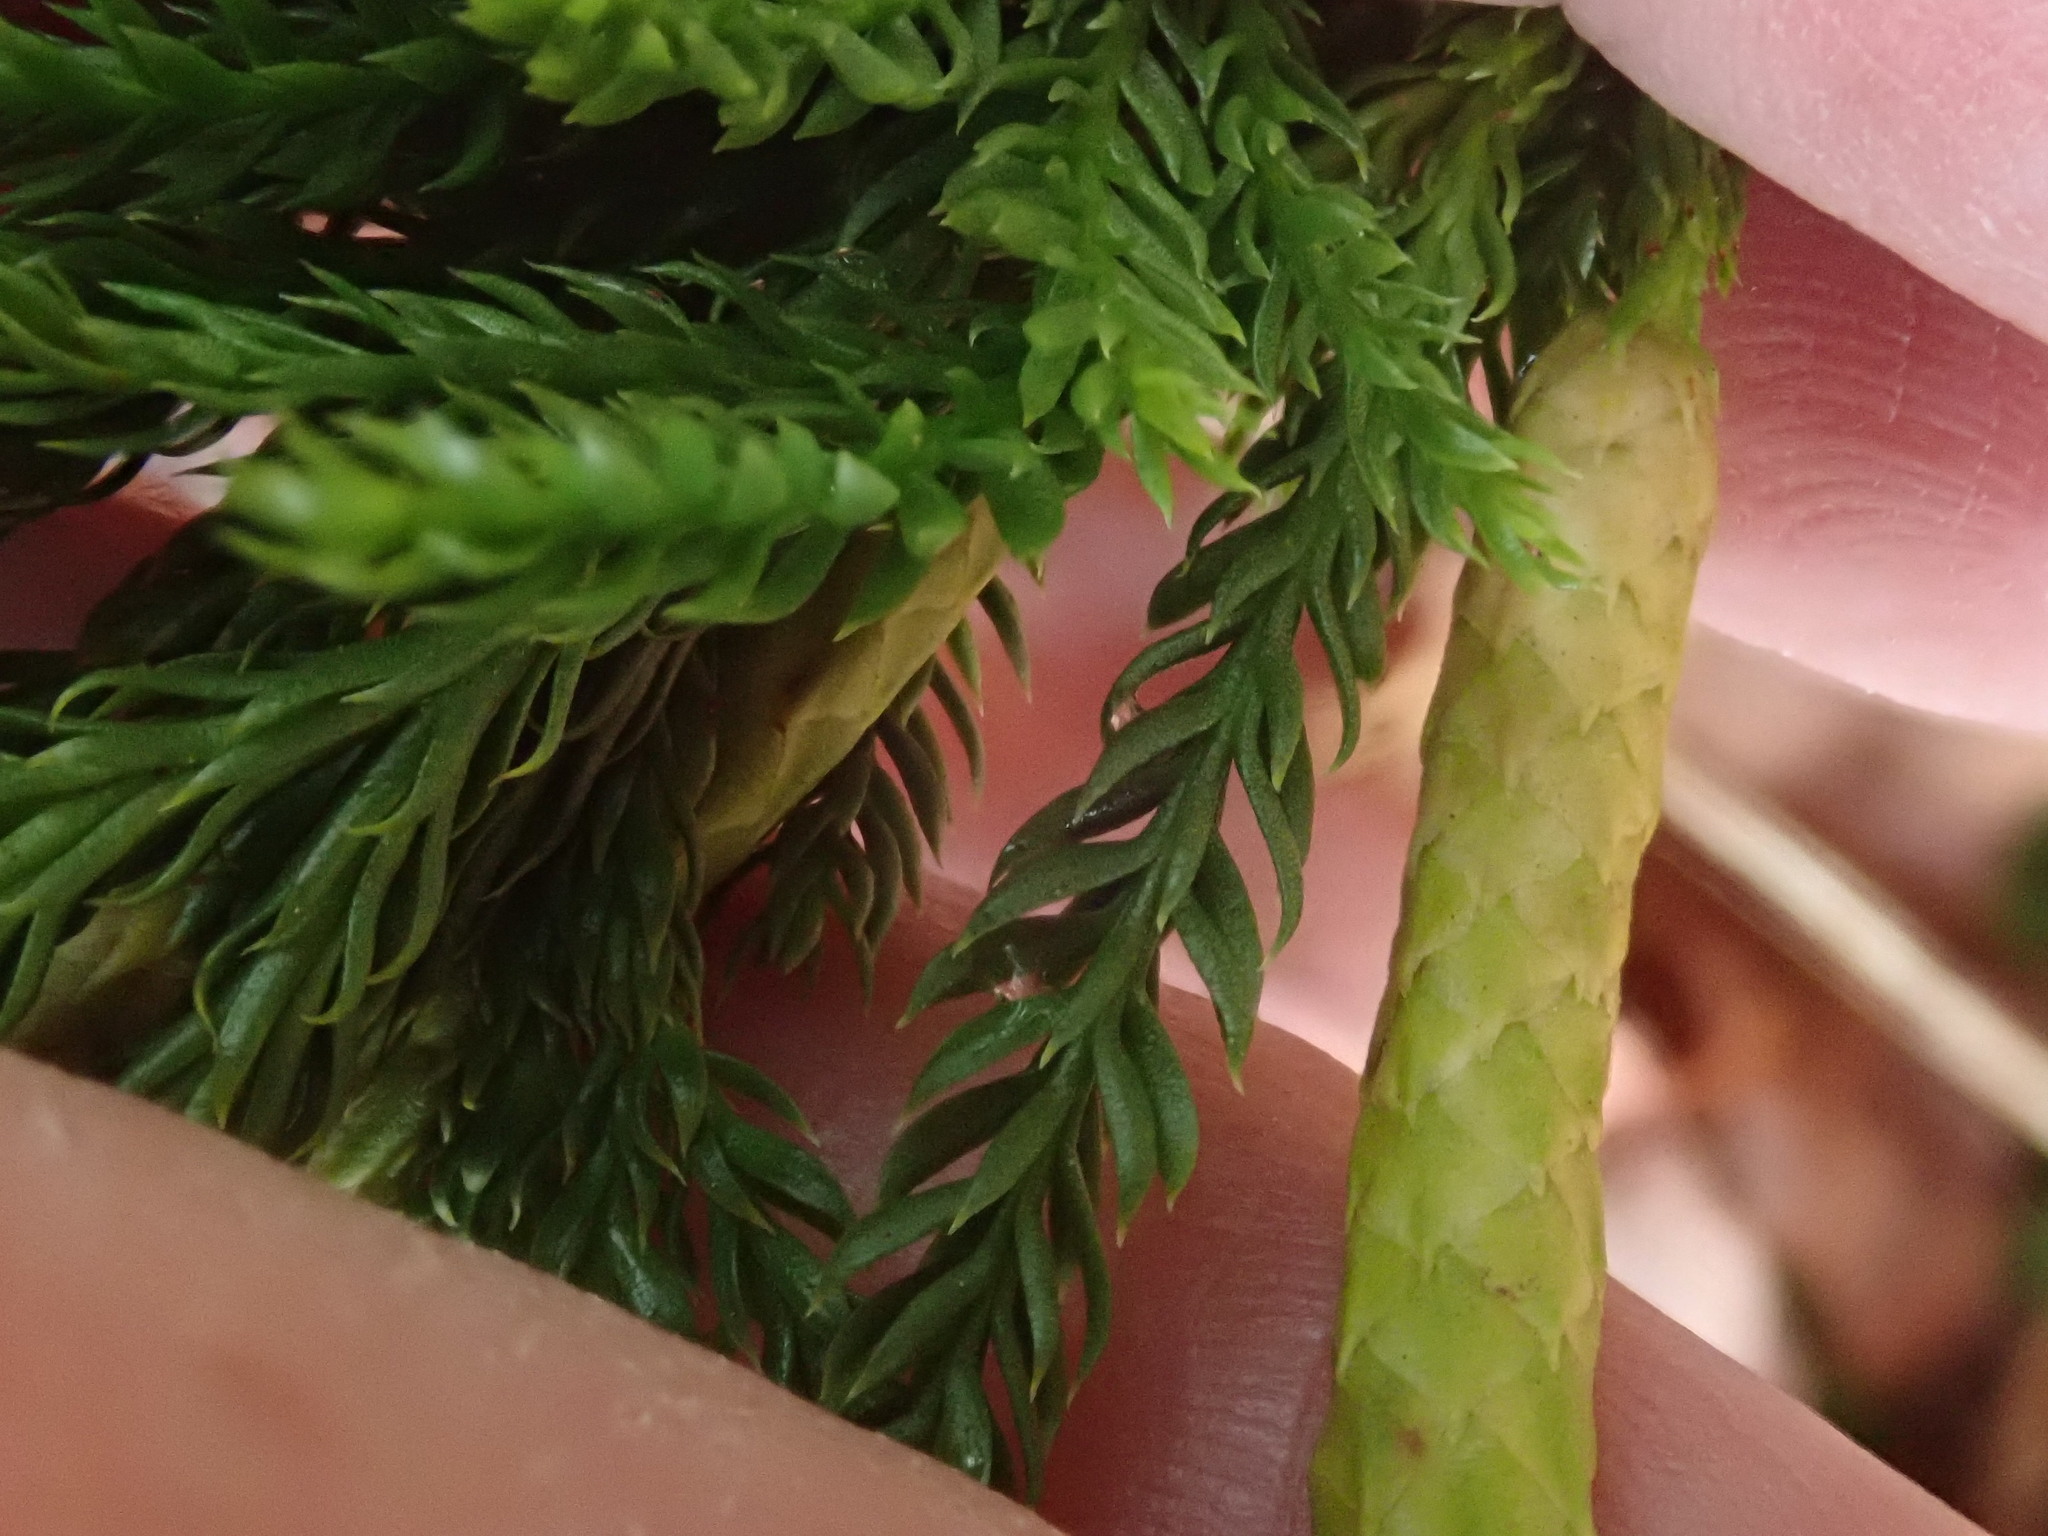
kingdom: Plantae
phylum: Tracheophyta
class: Lycopodiopsida
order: Lycopodiales
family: Lycopodiaceae
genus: Dendrolycopodium
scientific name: Dendrolycopodium hickeyi
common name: Hickey's clubmoss
